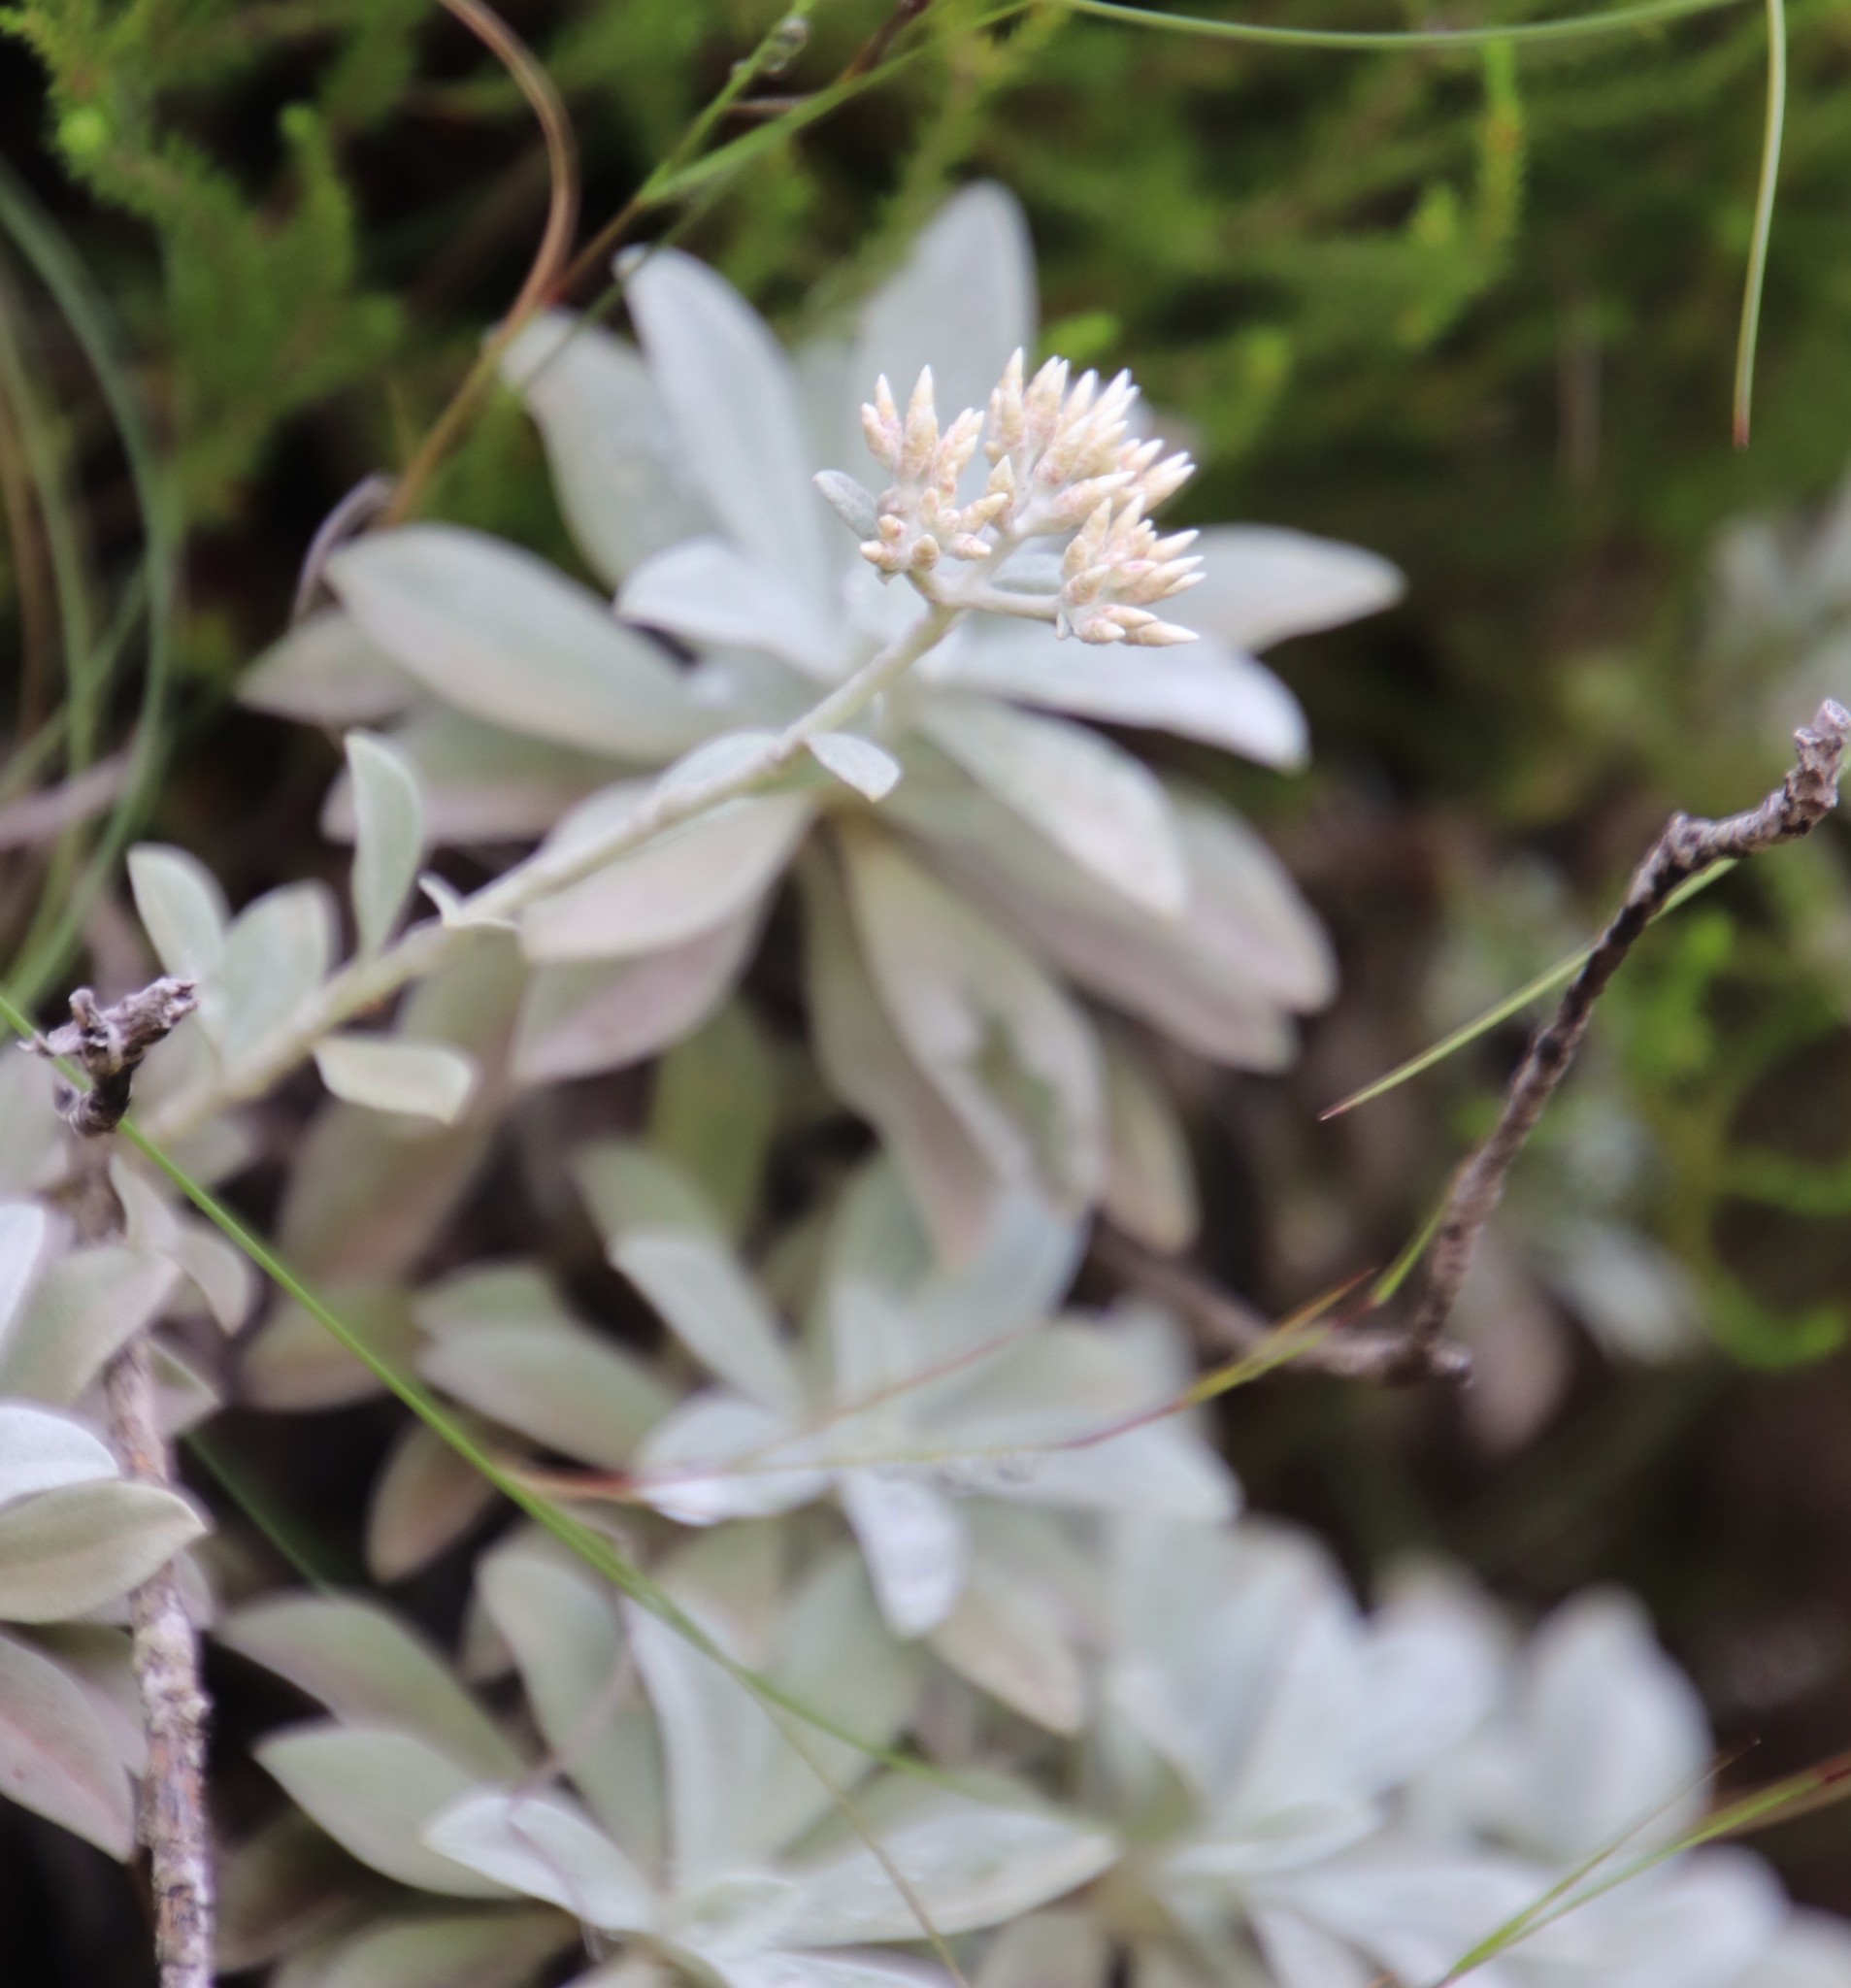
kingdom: Plantae
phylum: Tracheophyta
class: Magnoliopsida
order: Asterales
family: Asteraceae
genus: Helichrysum
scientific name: Helichrysum sutherlandii
